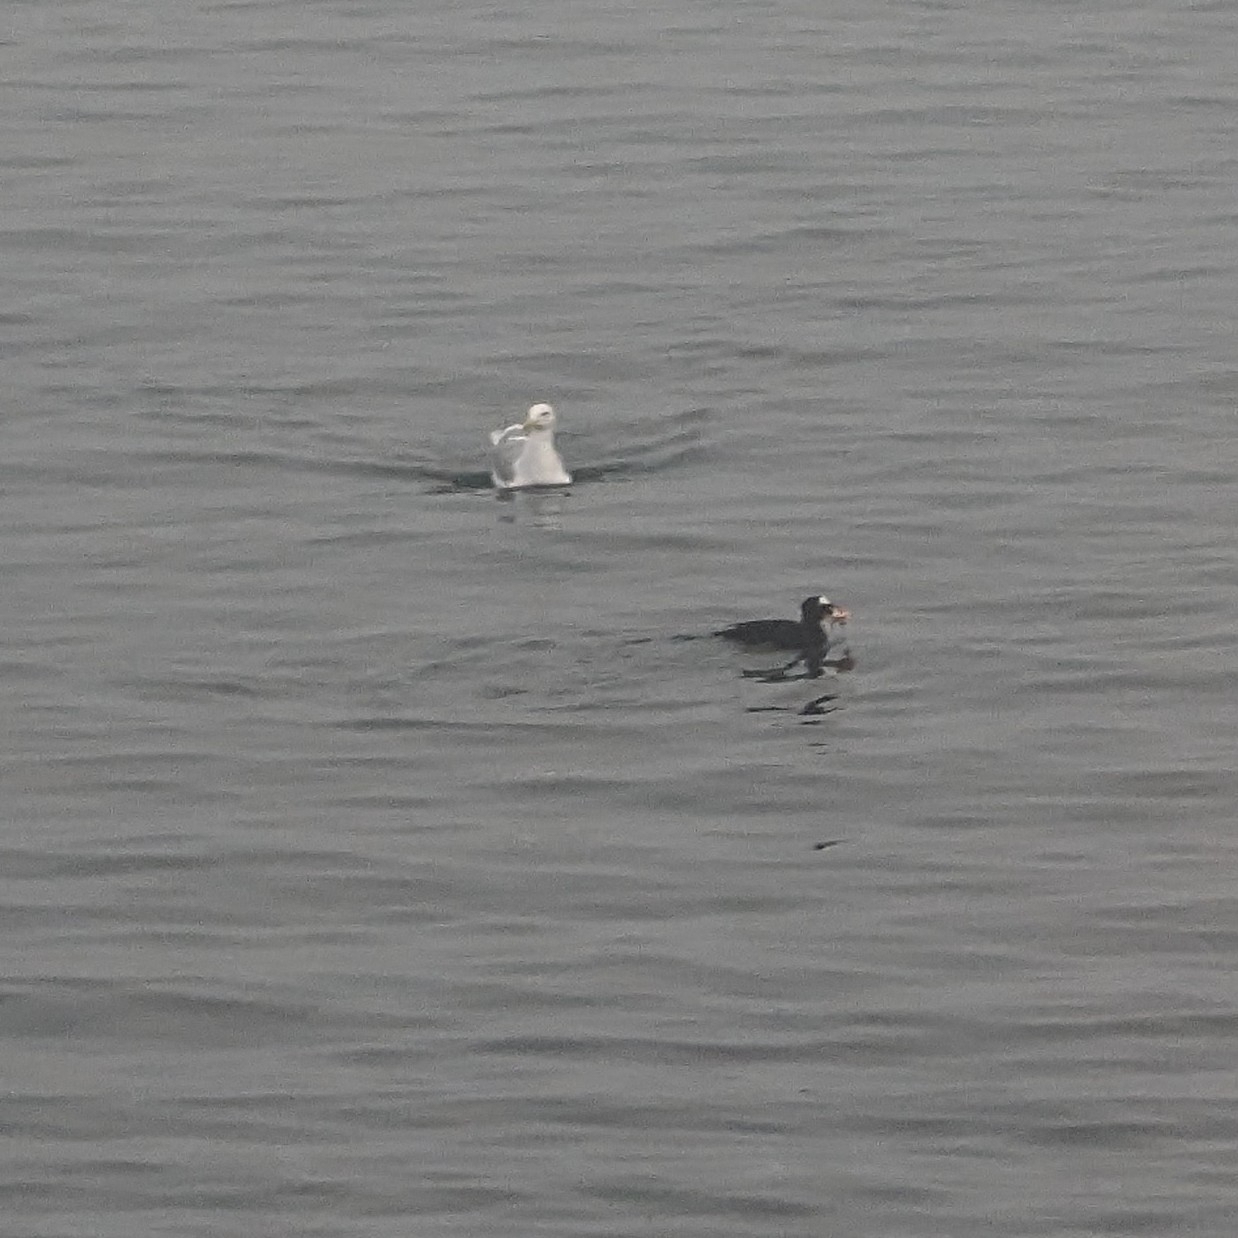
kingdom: Animalia
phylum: Chordata
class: Aves
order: Anseriformes
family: Anatidae
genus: Melanitta
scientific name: Melanitta perspicillata
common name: Surf scoter
